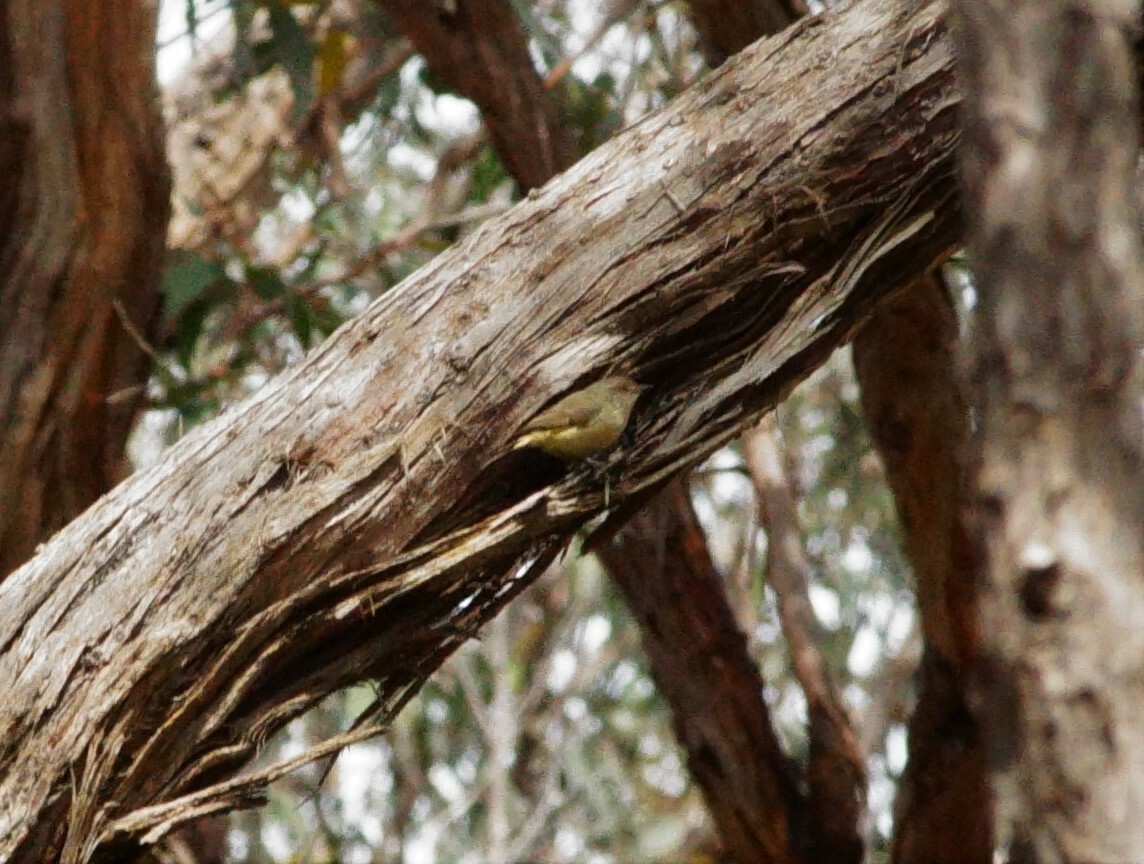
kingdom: Animalia
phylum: Chordata
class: Aves
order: Passeriformes
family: Acanthizidae
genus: Acanthiza
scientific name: Acanthiza reguloides
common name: Buff-rumped thornbill
